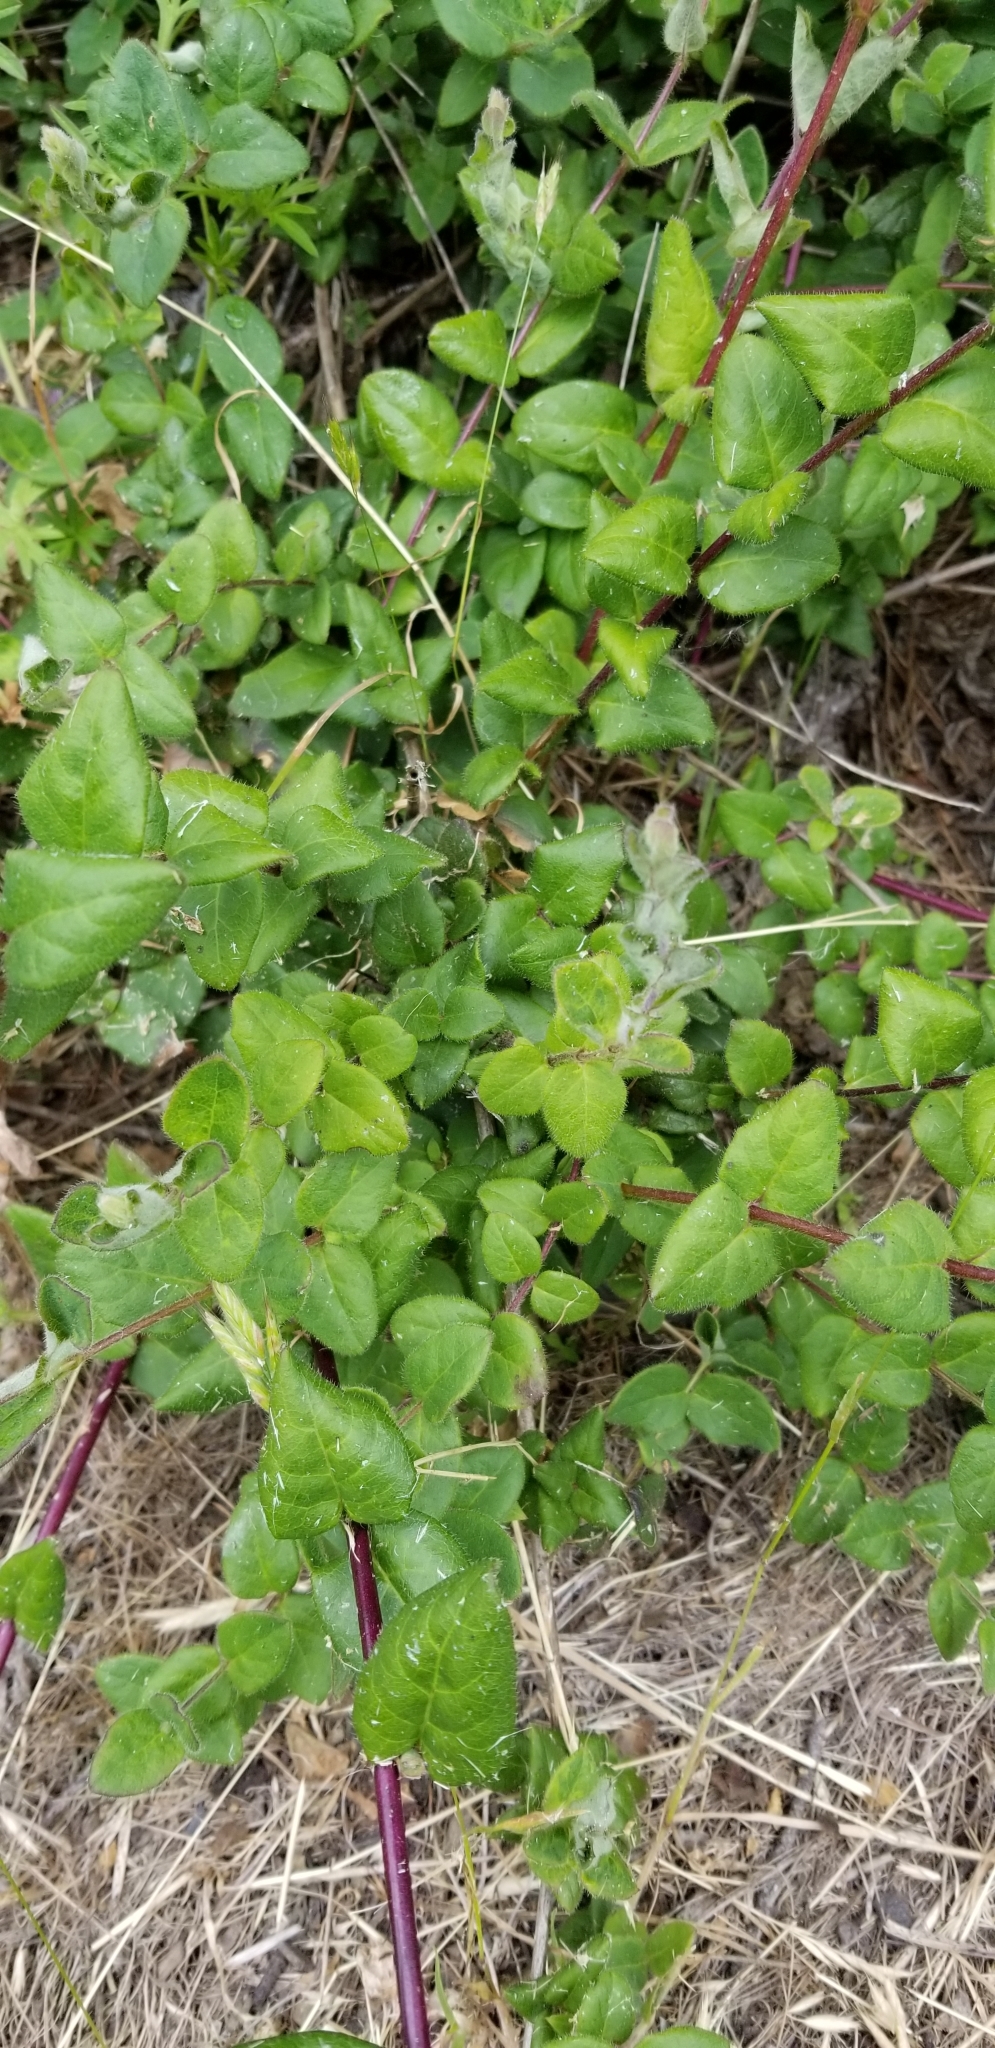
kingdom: Plantae
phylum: Tracheophyta
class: Magnoliopsida
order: Dipsacales
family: Caprifoliaceae
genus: Lonicera
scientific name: Lonicera hispidula
